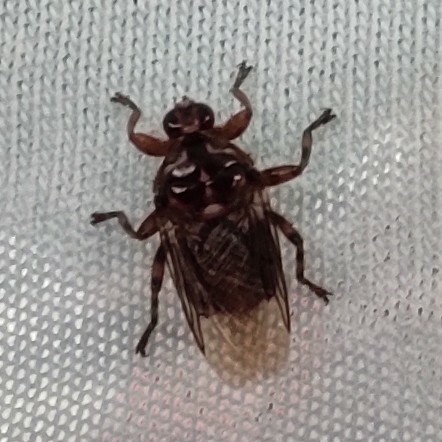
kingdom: Animalia
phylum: Arthropoda
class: Insecta
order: Diptera
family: Hippoboscidae
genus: Hippobosca
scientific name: Hippobosca equina
